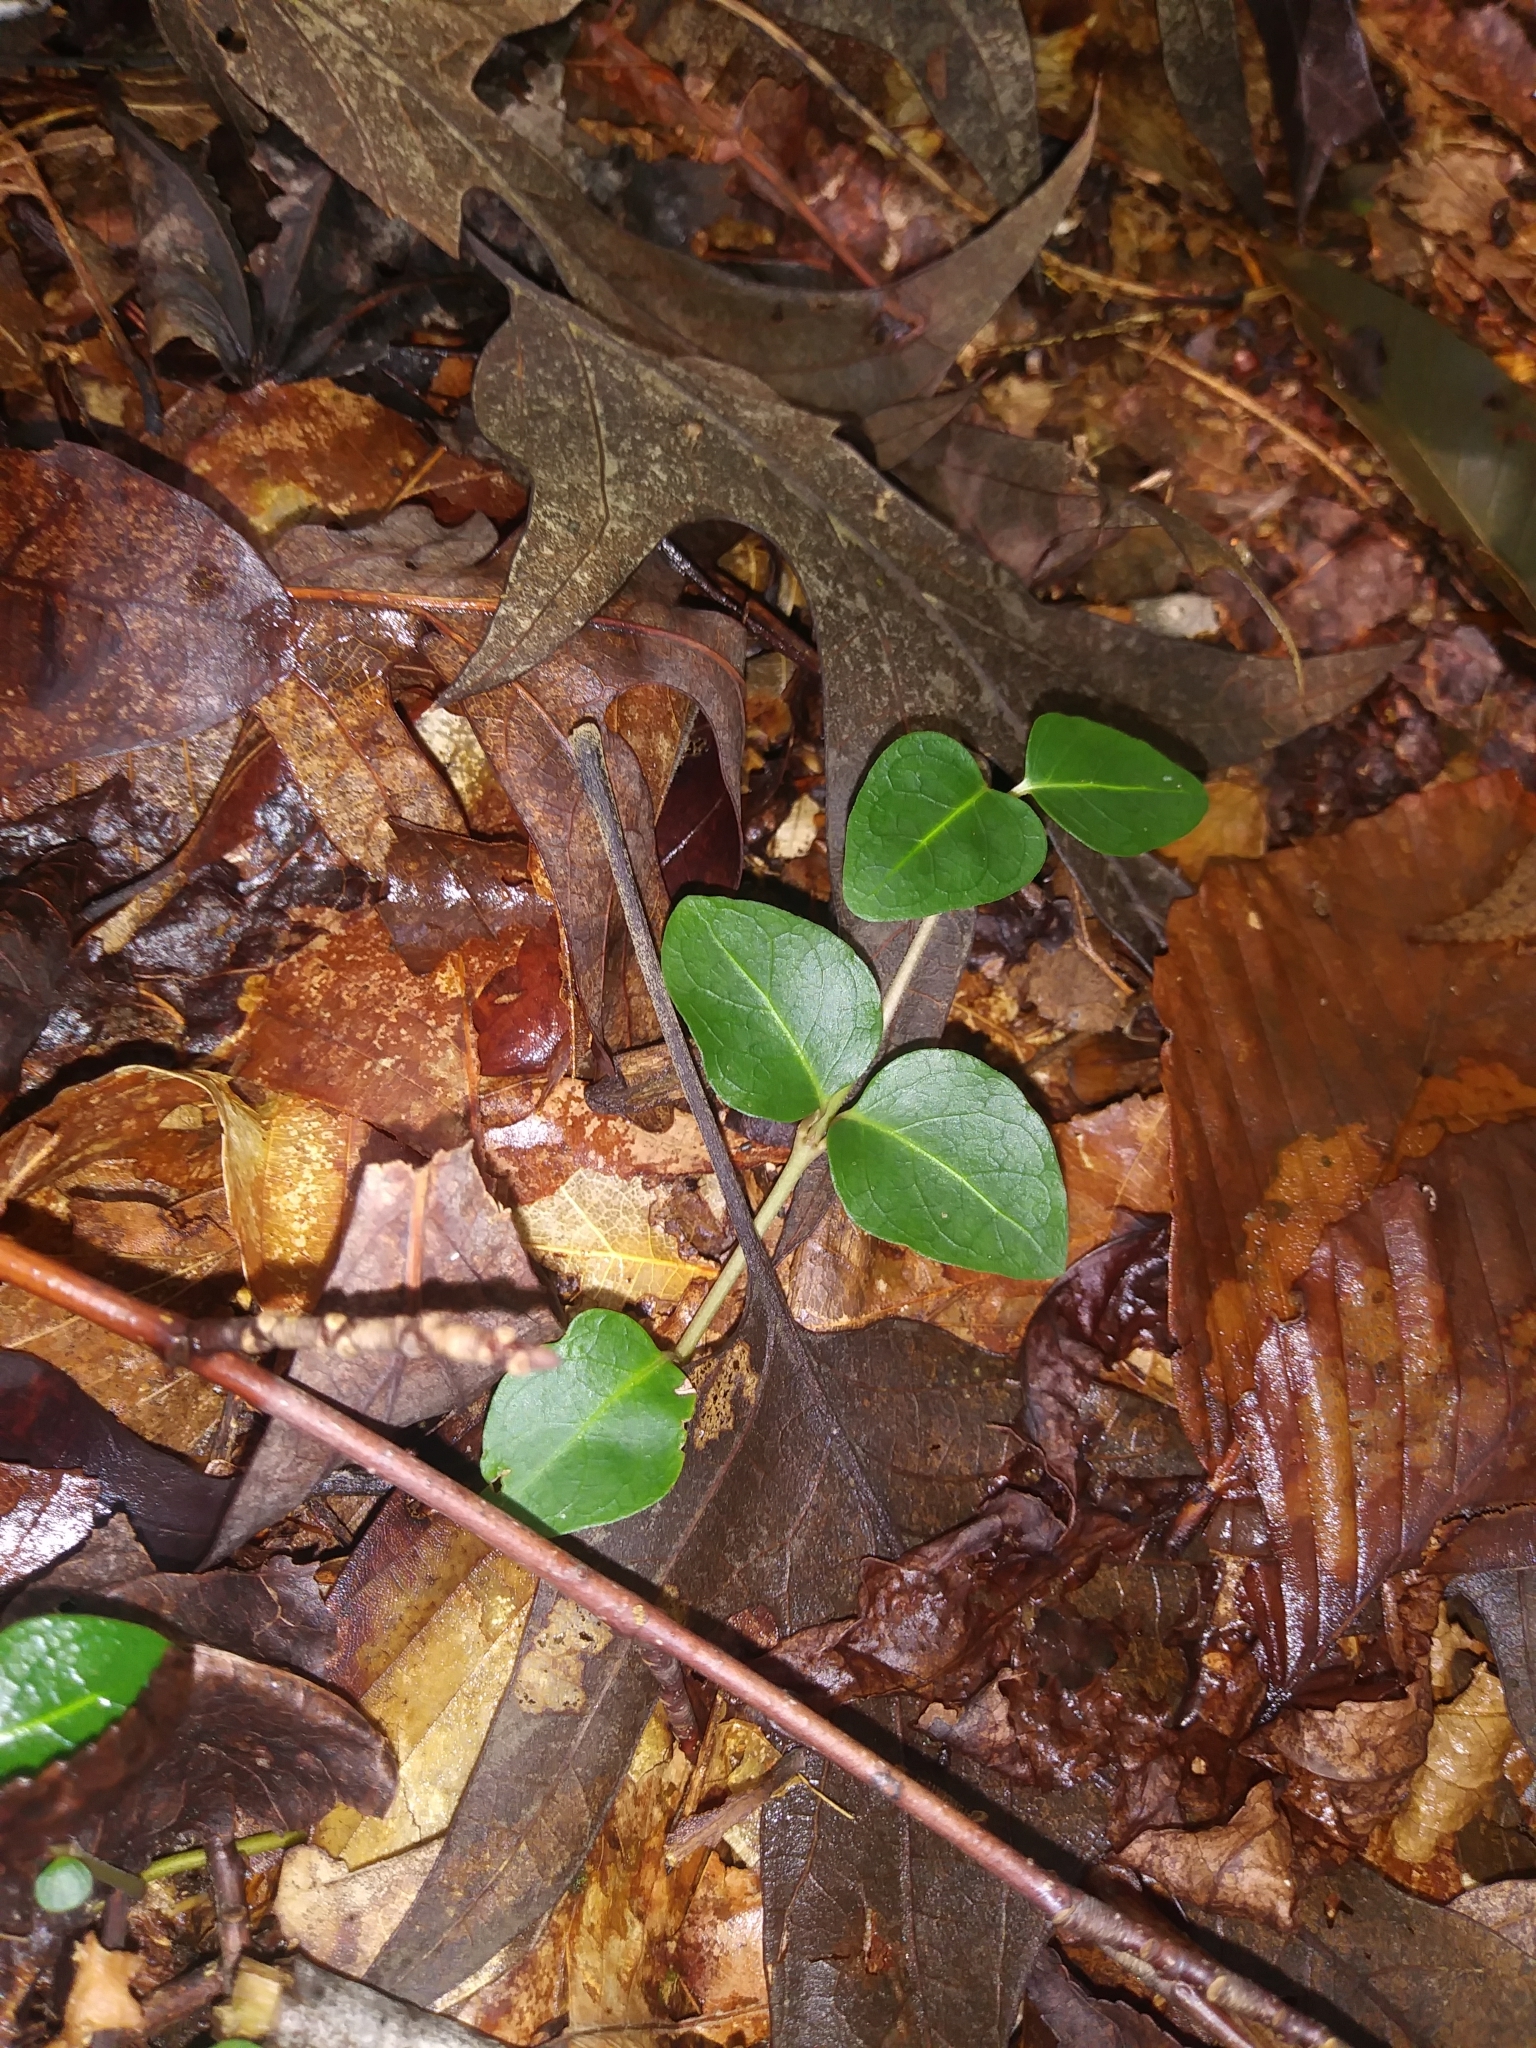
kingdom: Plantae
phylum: Tracheophyta
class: Magnoliopsida
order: Gentianales
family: Rubiaceae
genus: Mitchella
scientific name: Mitchella repens
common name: Partridge-berry
